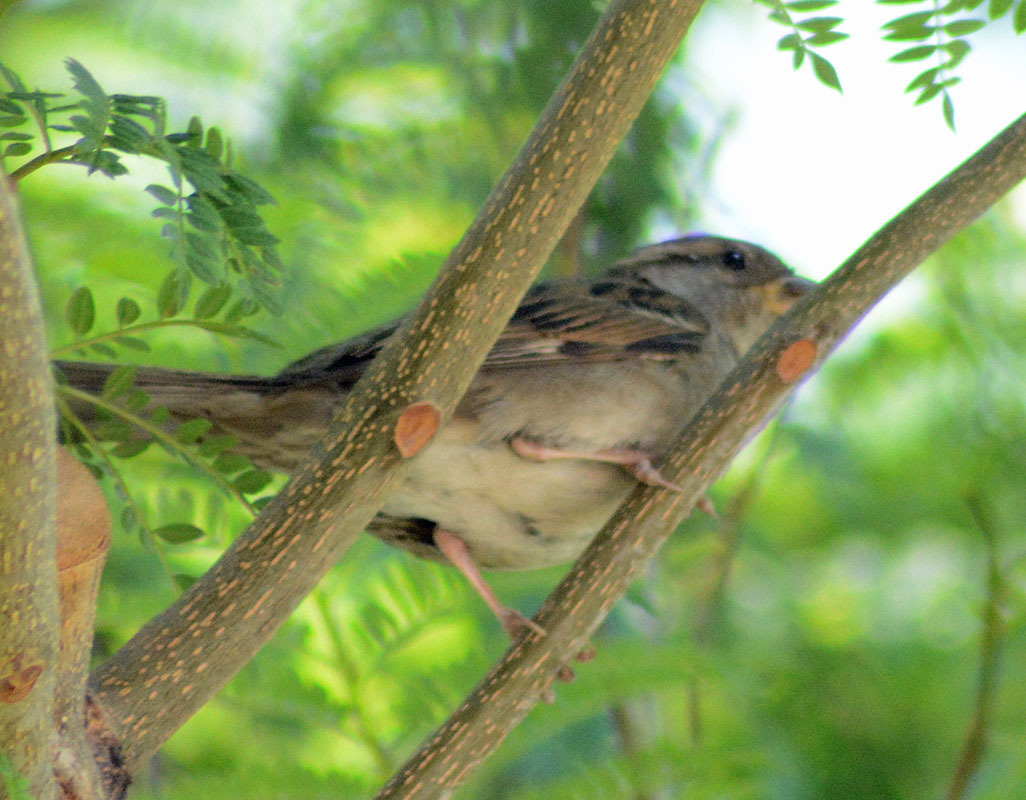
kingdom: Animalia
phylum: Chordata
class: Aves
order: Passeriformes
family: Passeridae
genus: Passer
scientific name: Passer domesticus
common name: House sparrow
